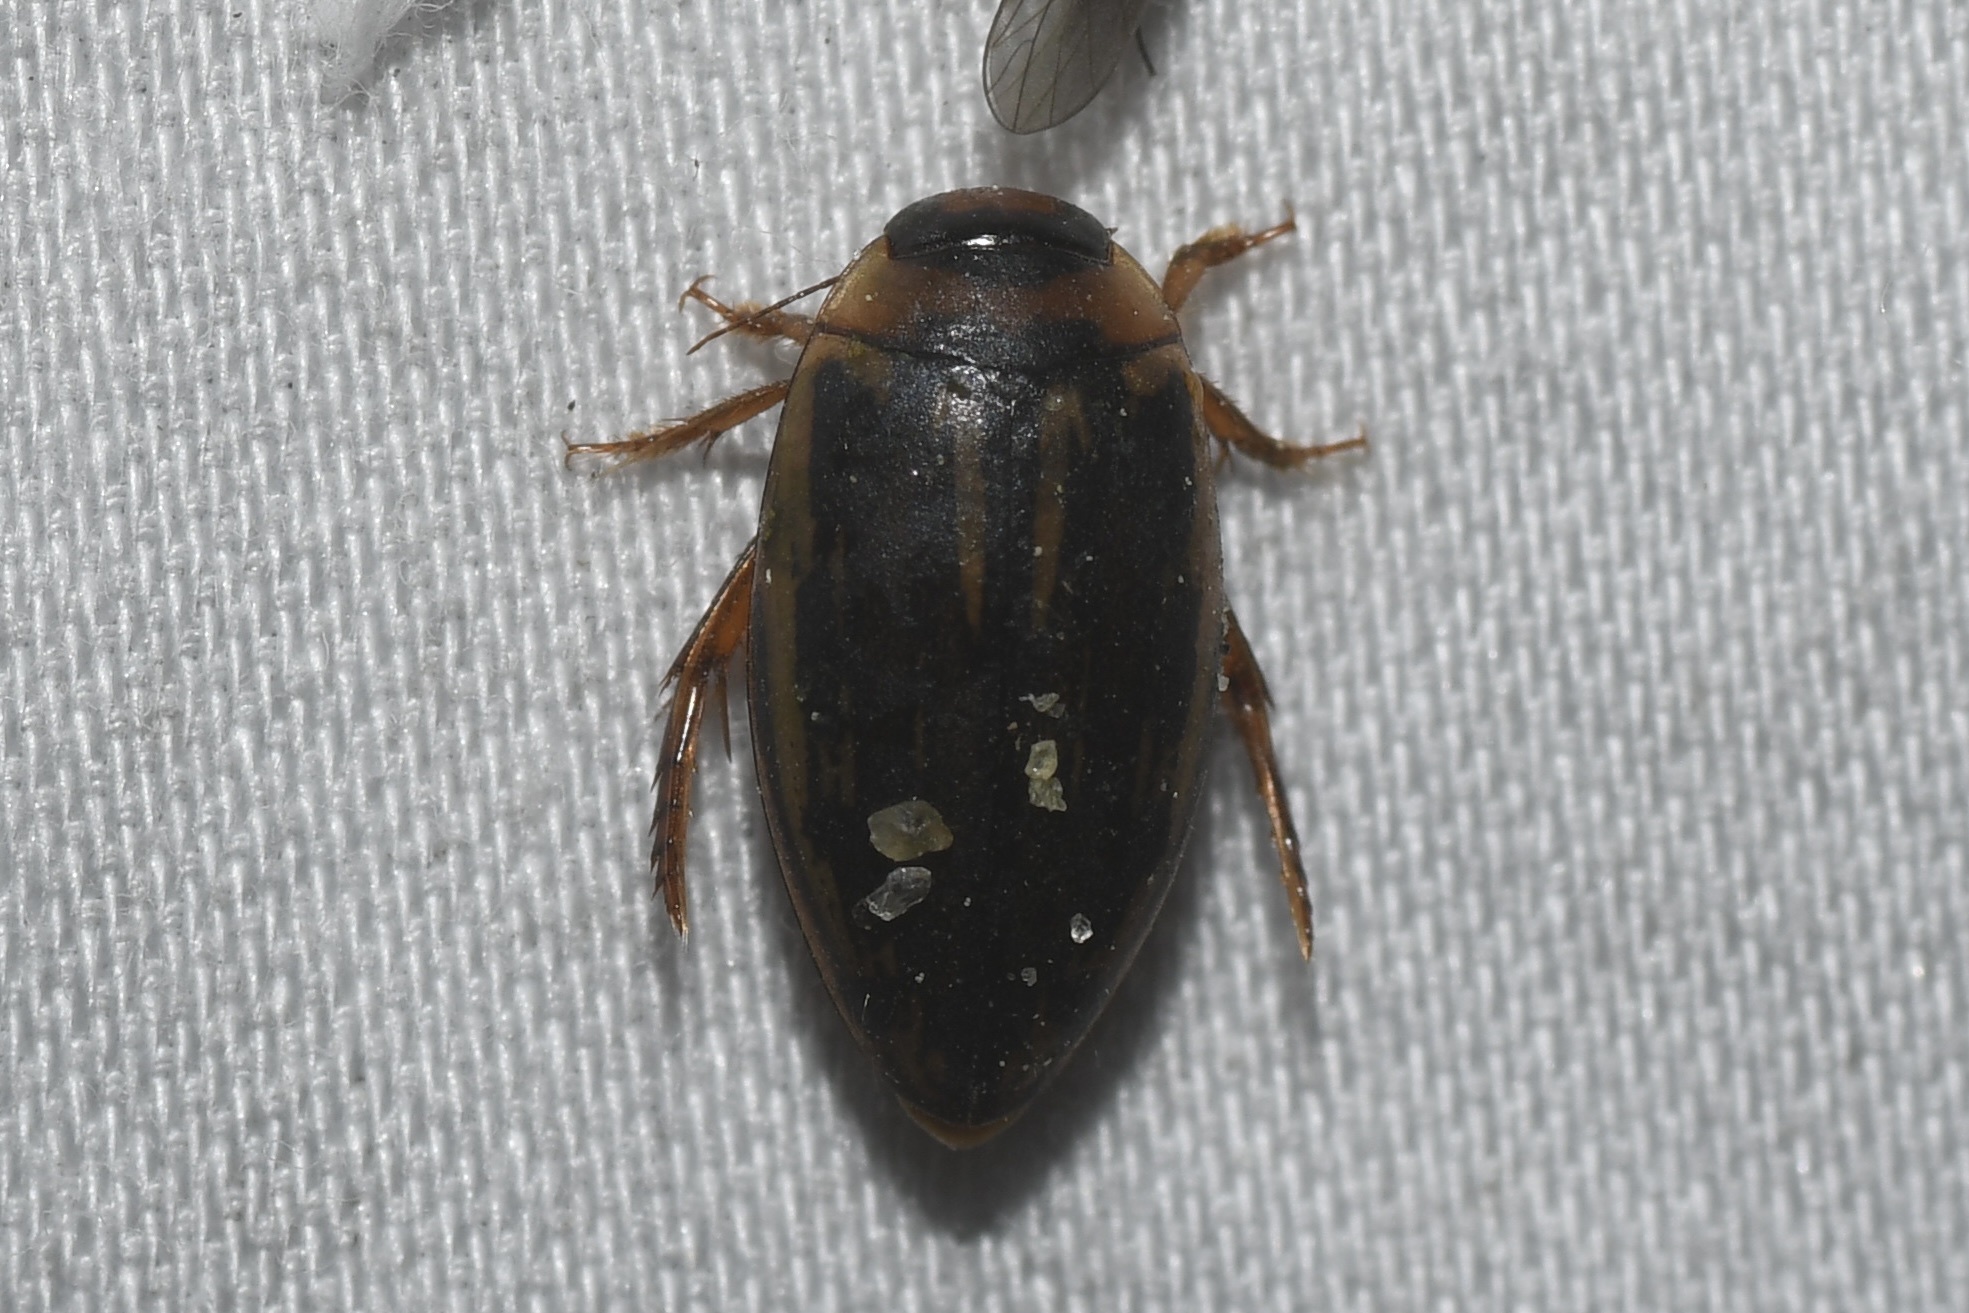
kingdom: Animalia
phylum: Arthropoda
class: Insecta
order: Coleoptera
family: Dytiscidae
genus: Coptotomus
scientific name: Coptotomus longulus
